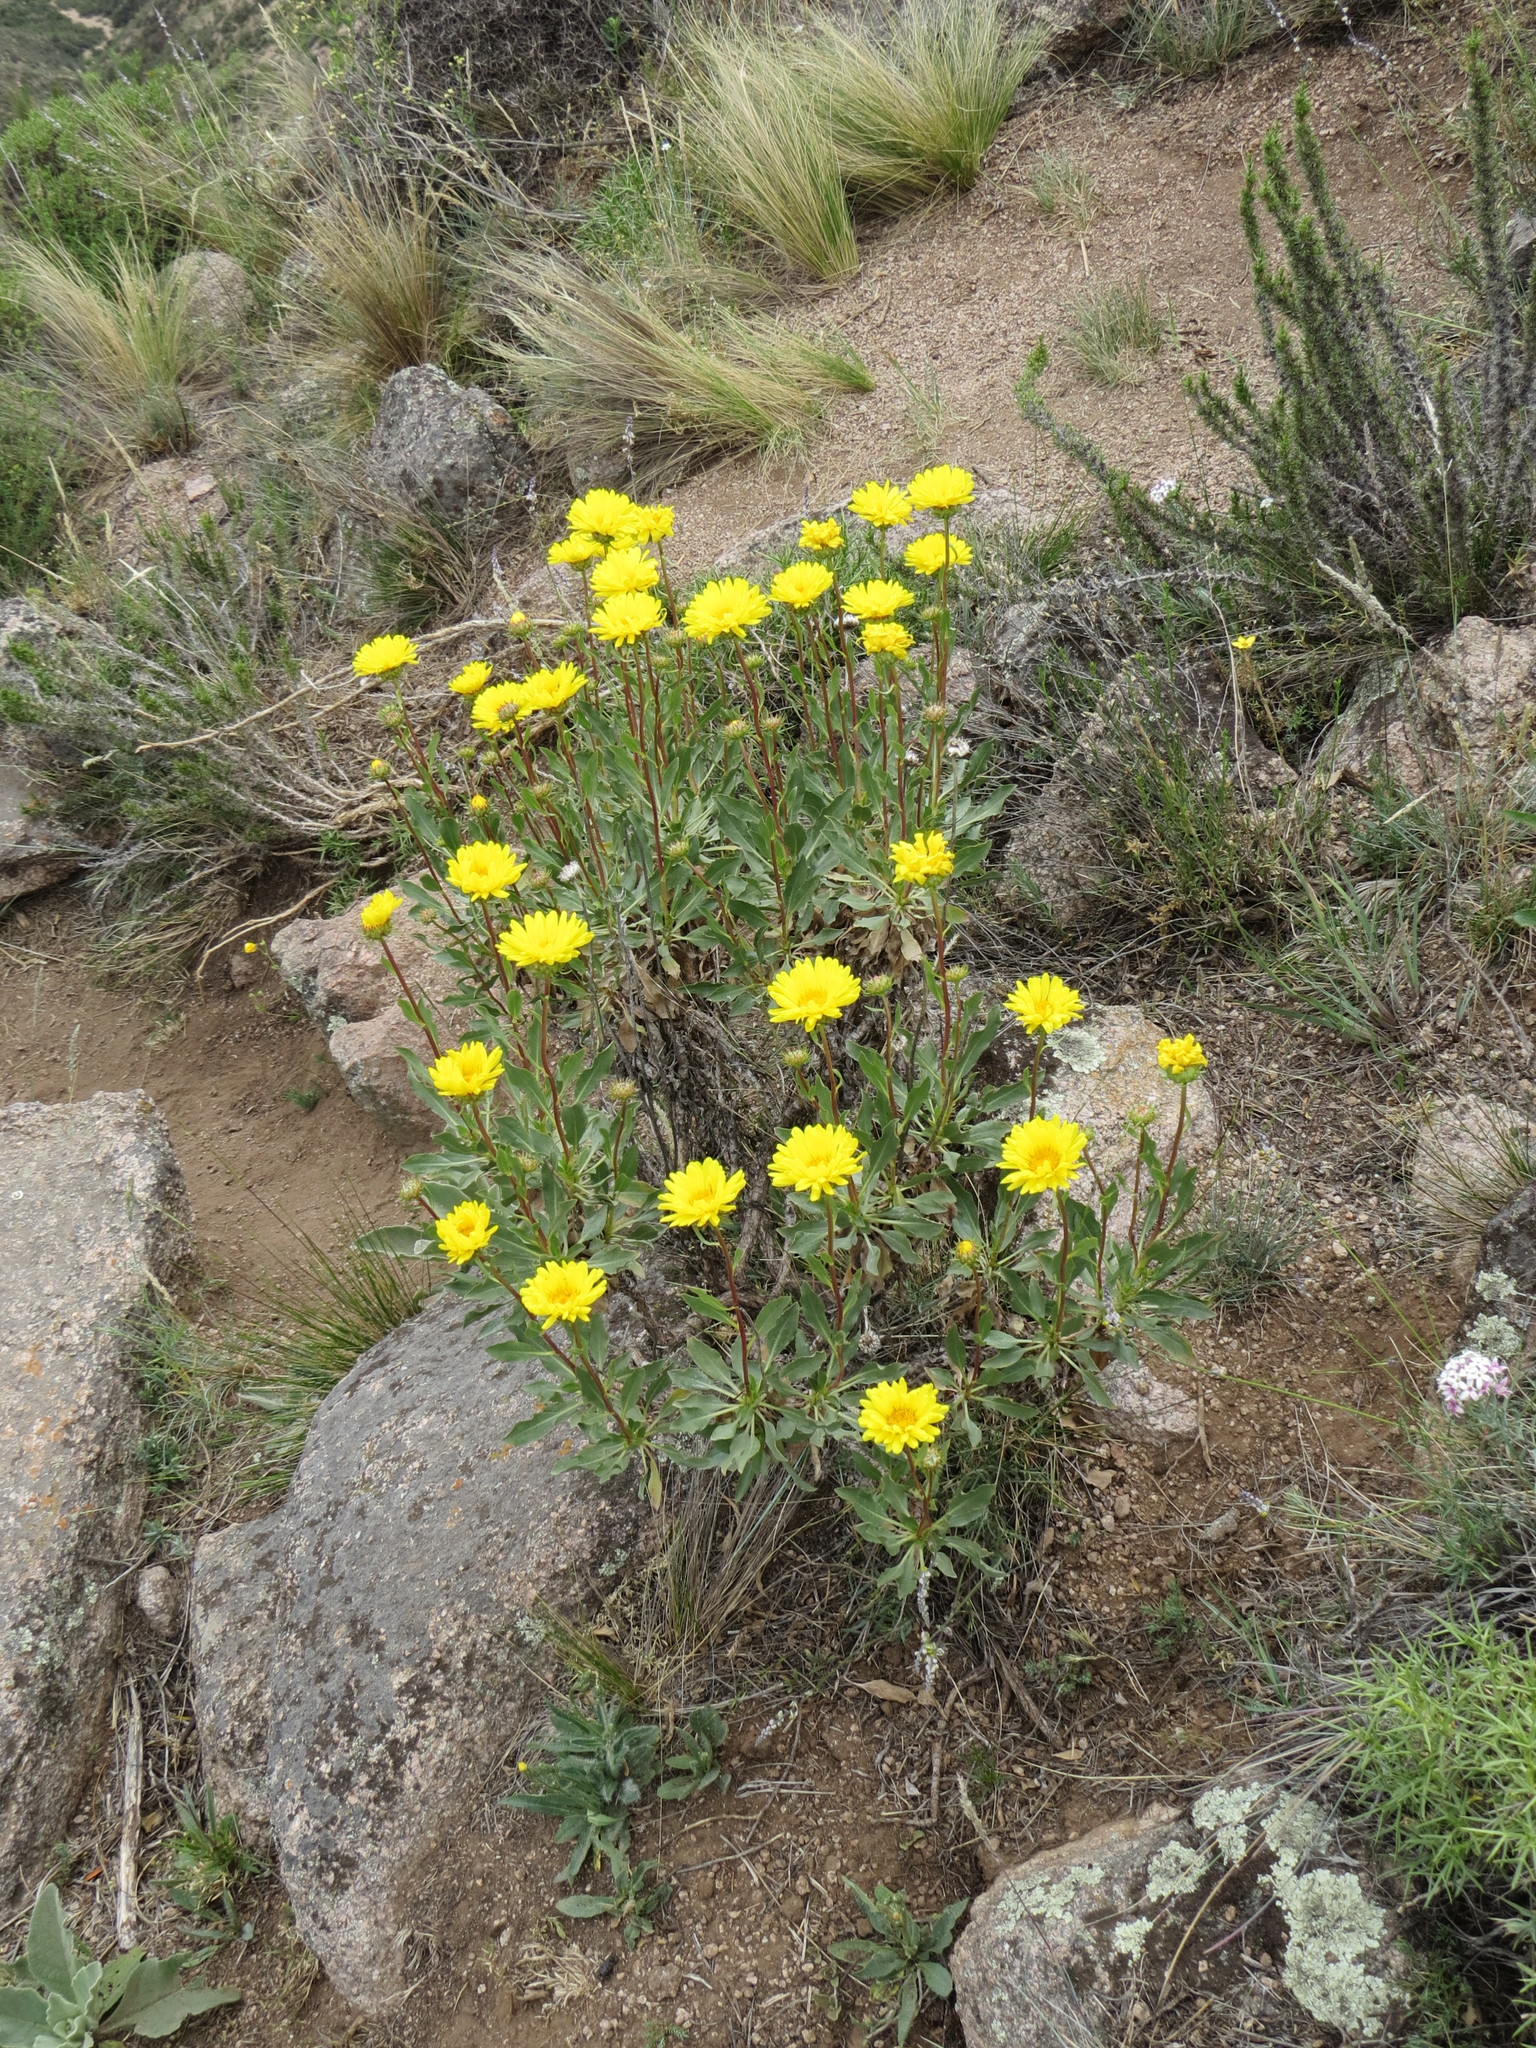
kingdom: Plantae
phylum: Tracheophyta
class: Magnoliopsida
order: Asterales
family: Asteraceae
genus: Grindelia
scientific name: Grindelia chiloensis
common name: Shrubby gumweed
